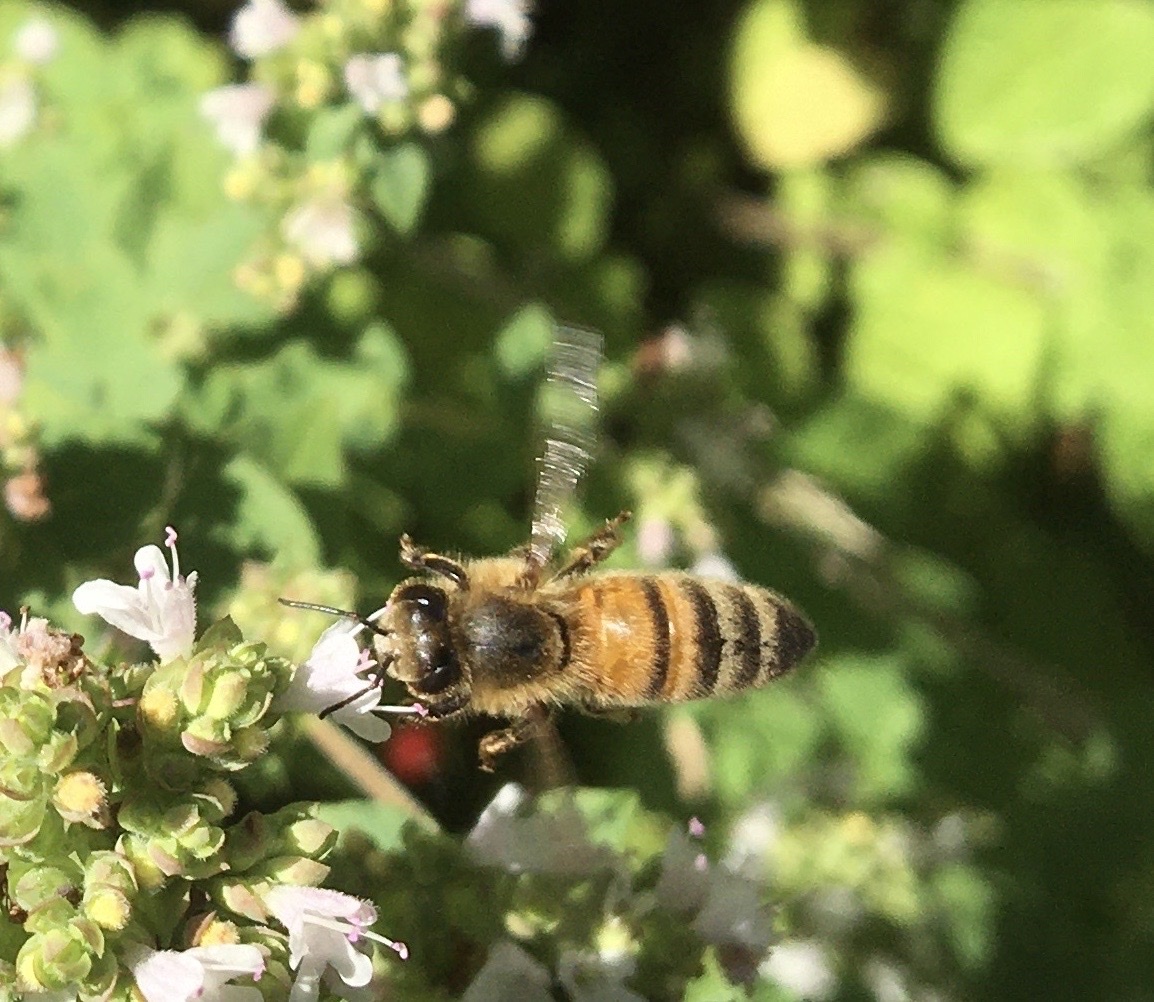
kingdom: Animalia
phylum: Arthropoda
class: Insecta
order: Hymenoptera
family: Apidae
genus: Apis
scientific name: Apis mellifera
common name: Honey bee
